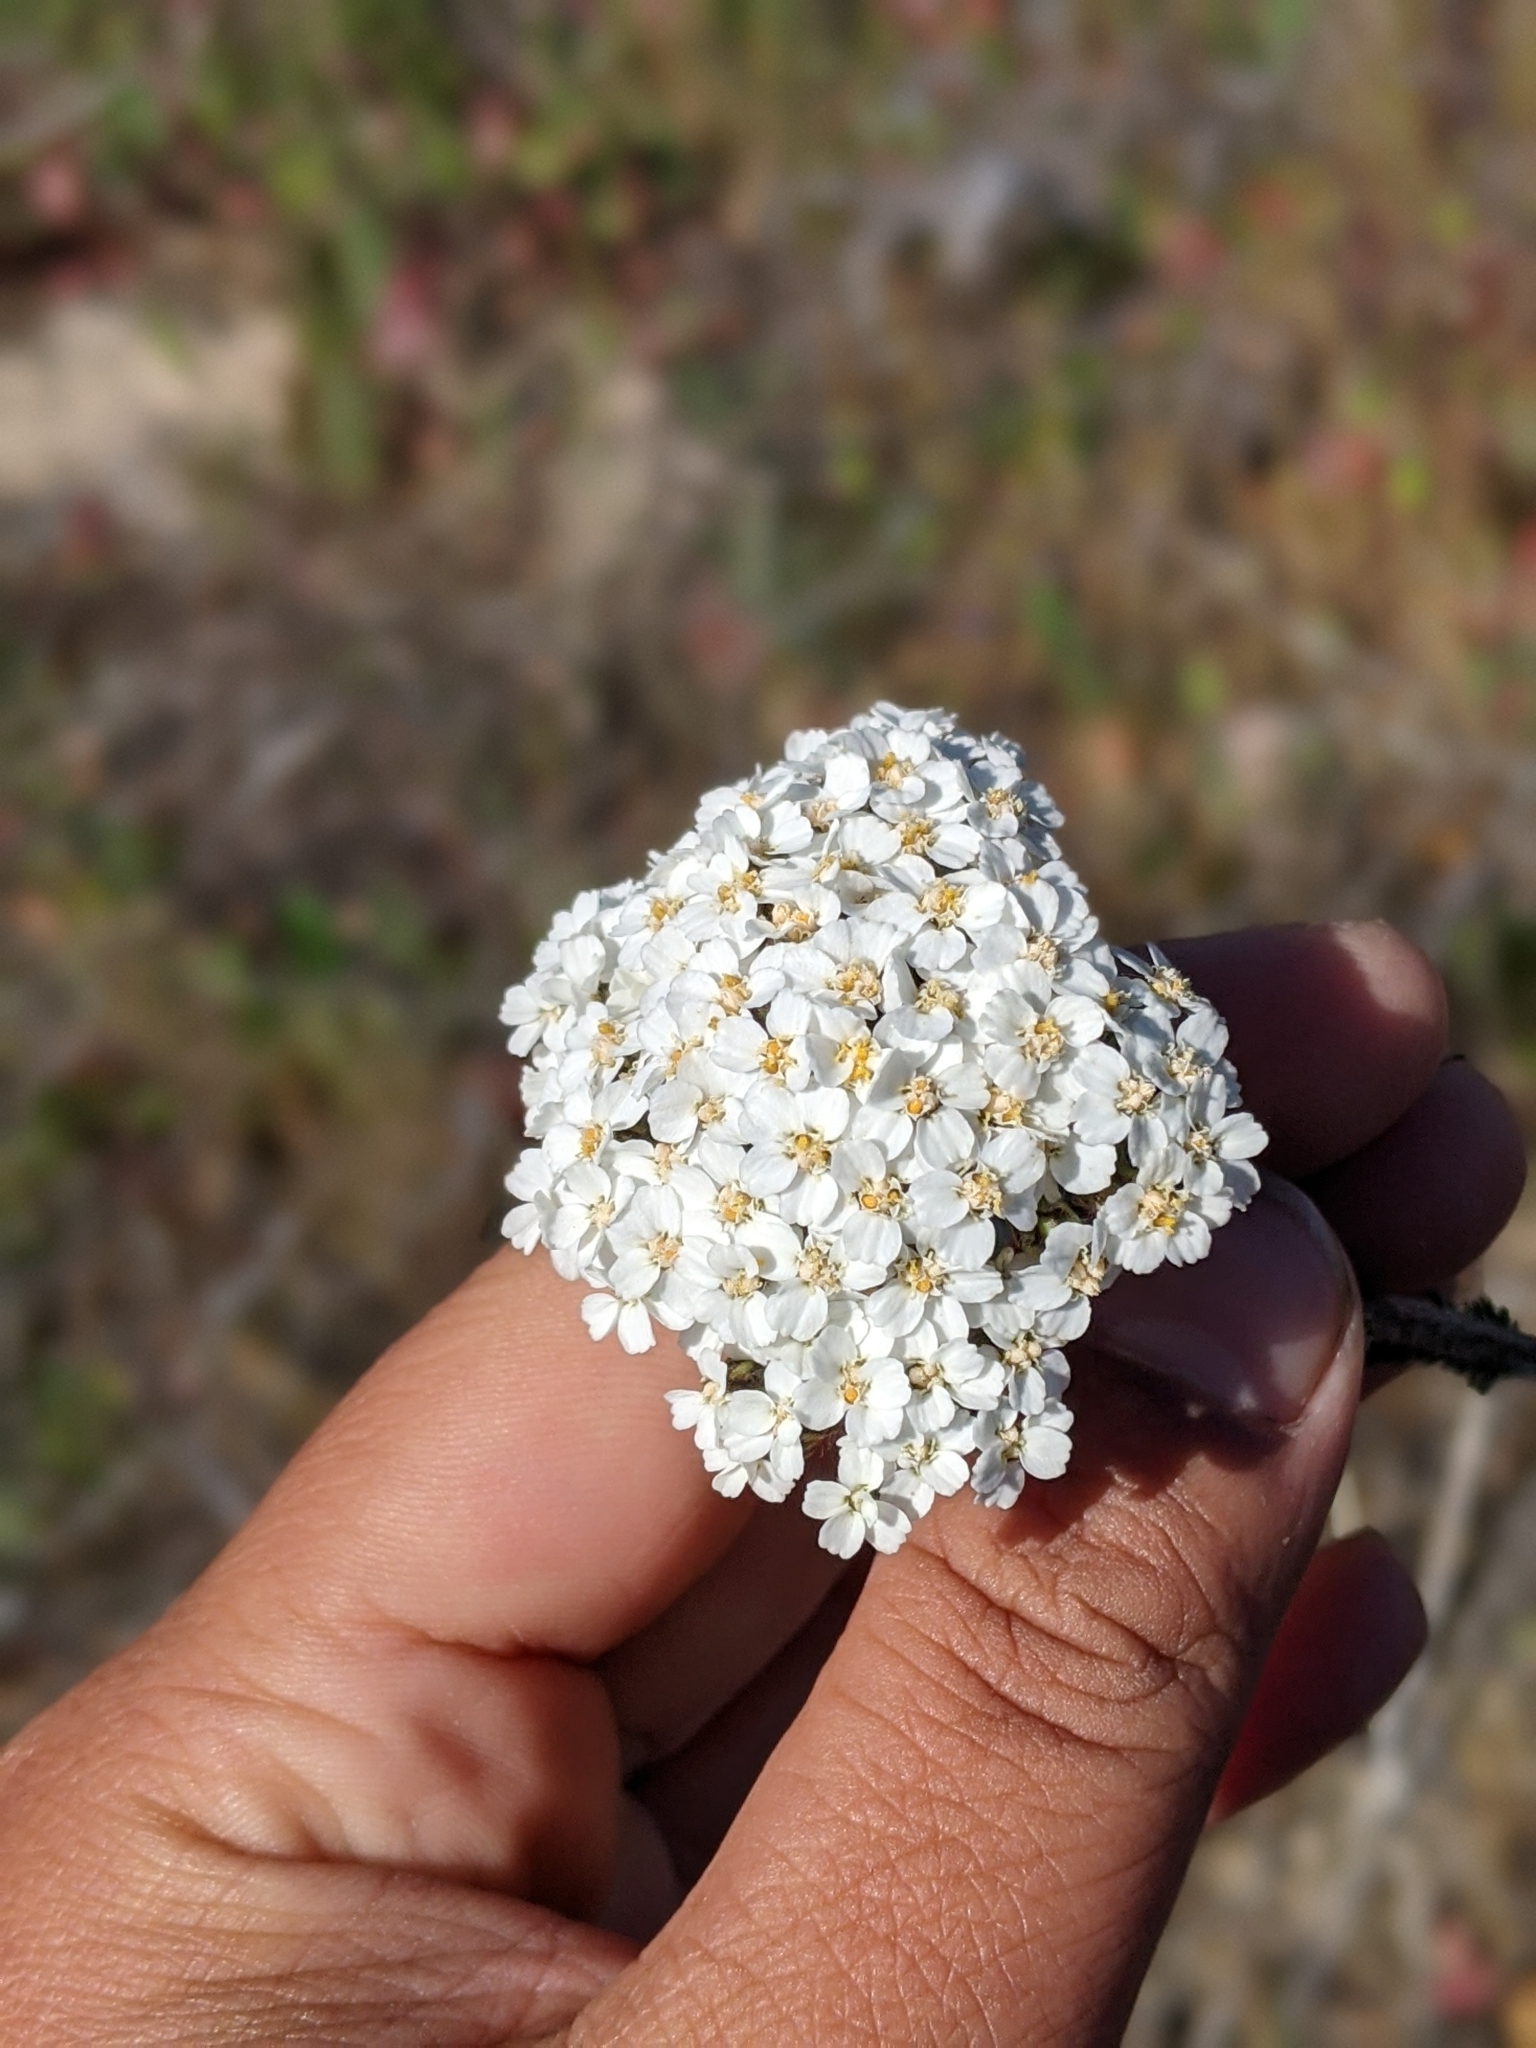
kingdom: Plantae
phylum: Tracheophyta
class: Magnoliopsida
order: Asterales
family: Asteraceae
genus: Achillea
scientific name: Achillea millefolium
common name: Yarrow
